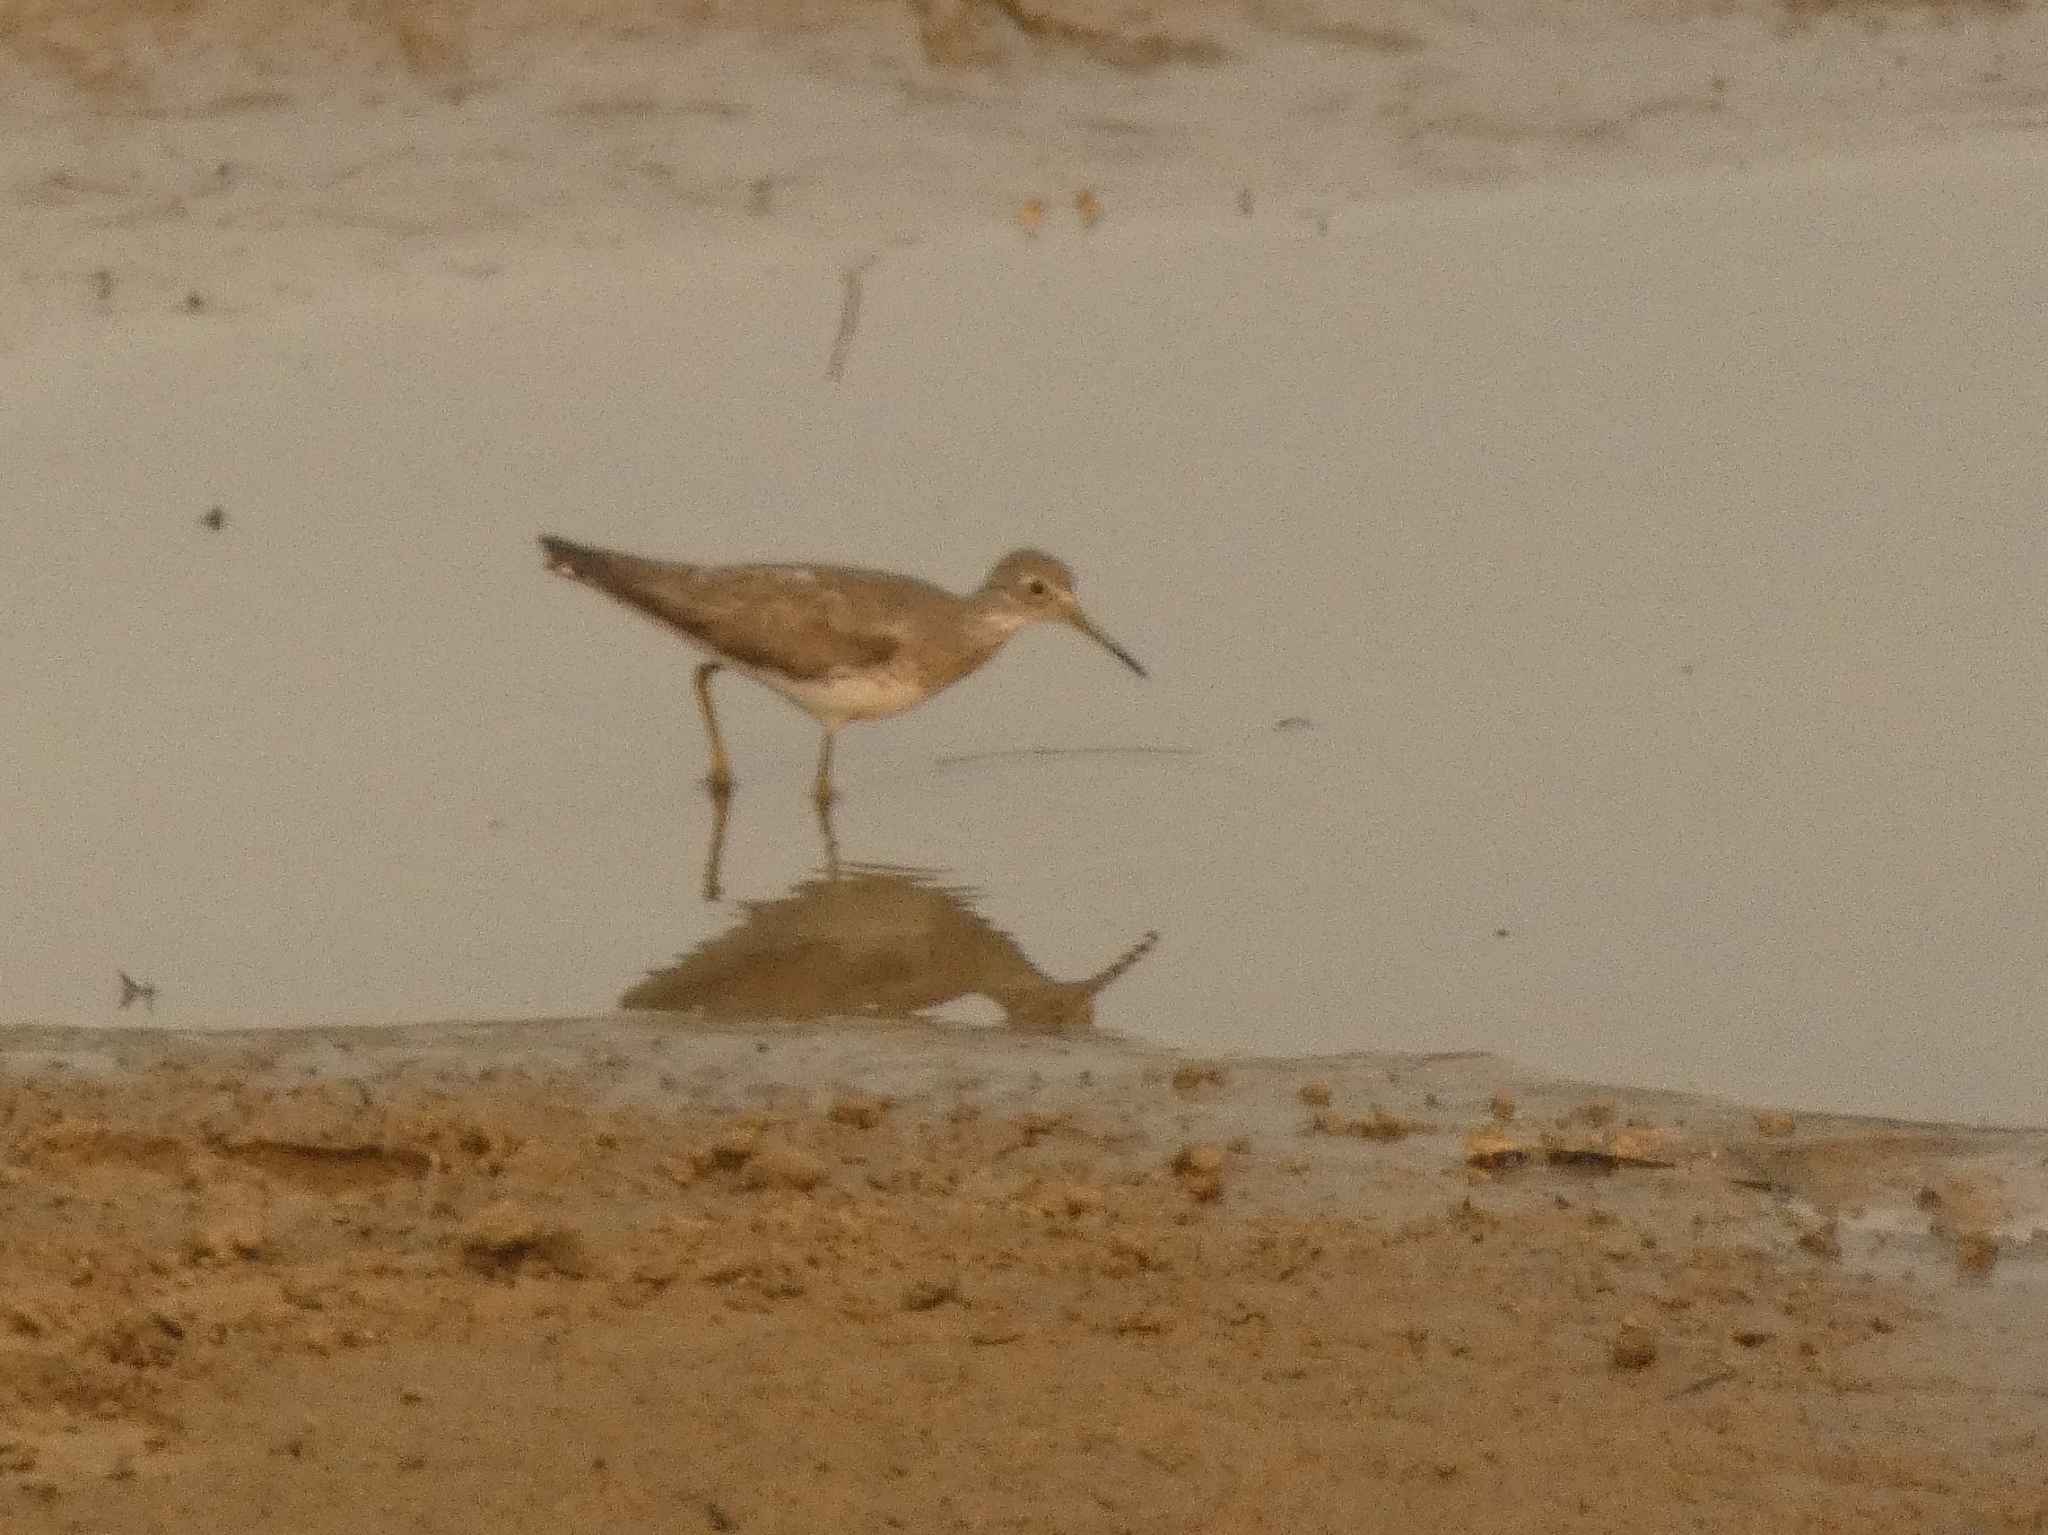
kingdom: Animalia
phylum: Chordata
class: Aves
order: Charadriiformes
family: Scolopacidae
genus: Tringa
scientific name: Tringa solitaria
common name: Solitary sandpiper
